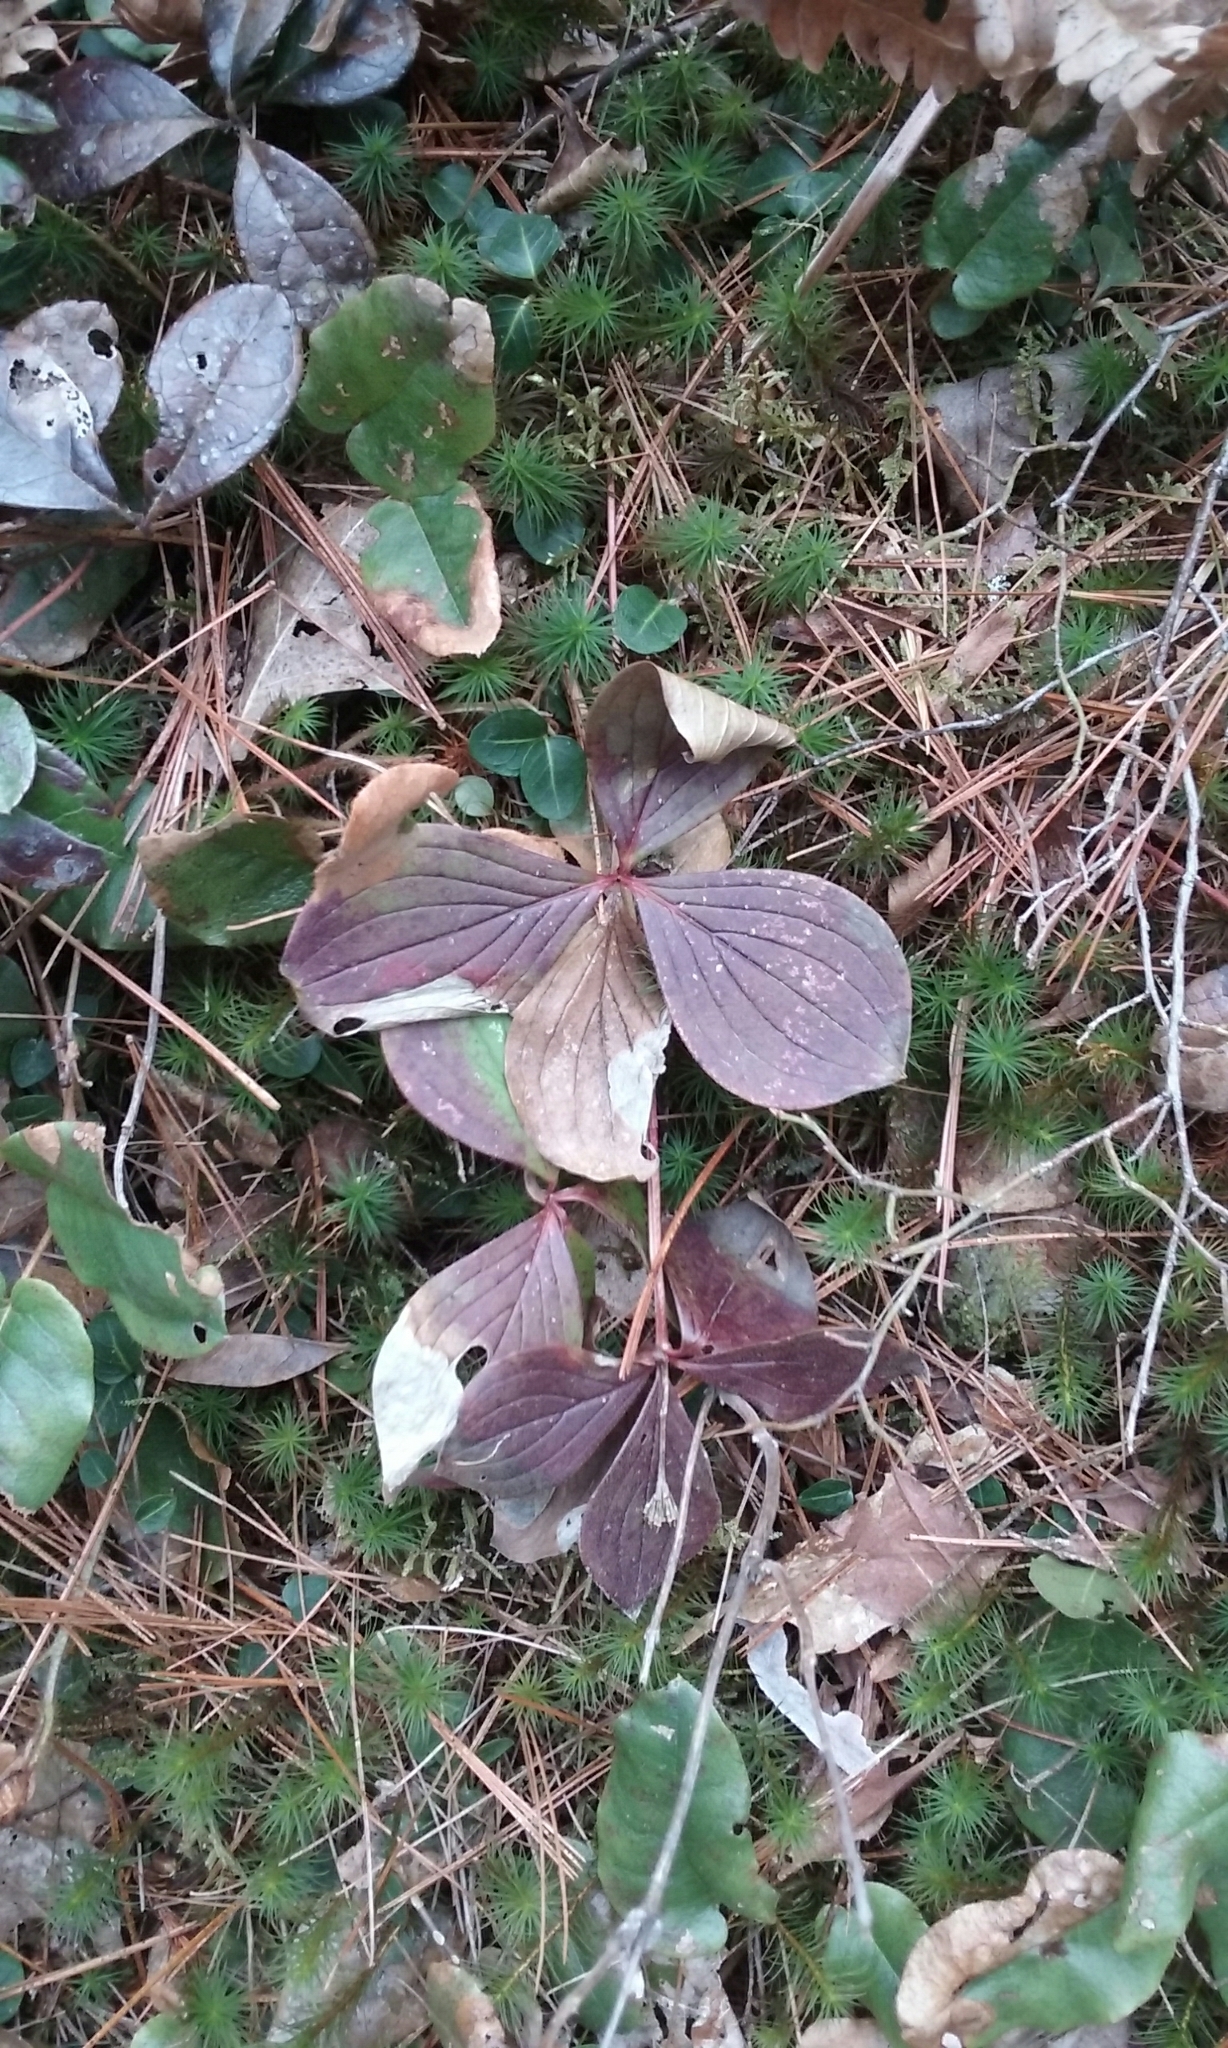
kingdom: Plantae
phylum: Tracheophyta
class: Magnoliopsida
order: Cornales
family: Cornaceae
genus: Cornus
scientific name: Cornus canadensis
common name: Creeping dogwood
